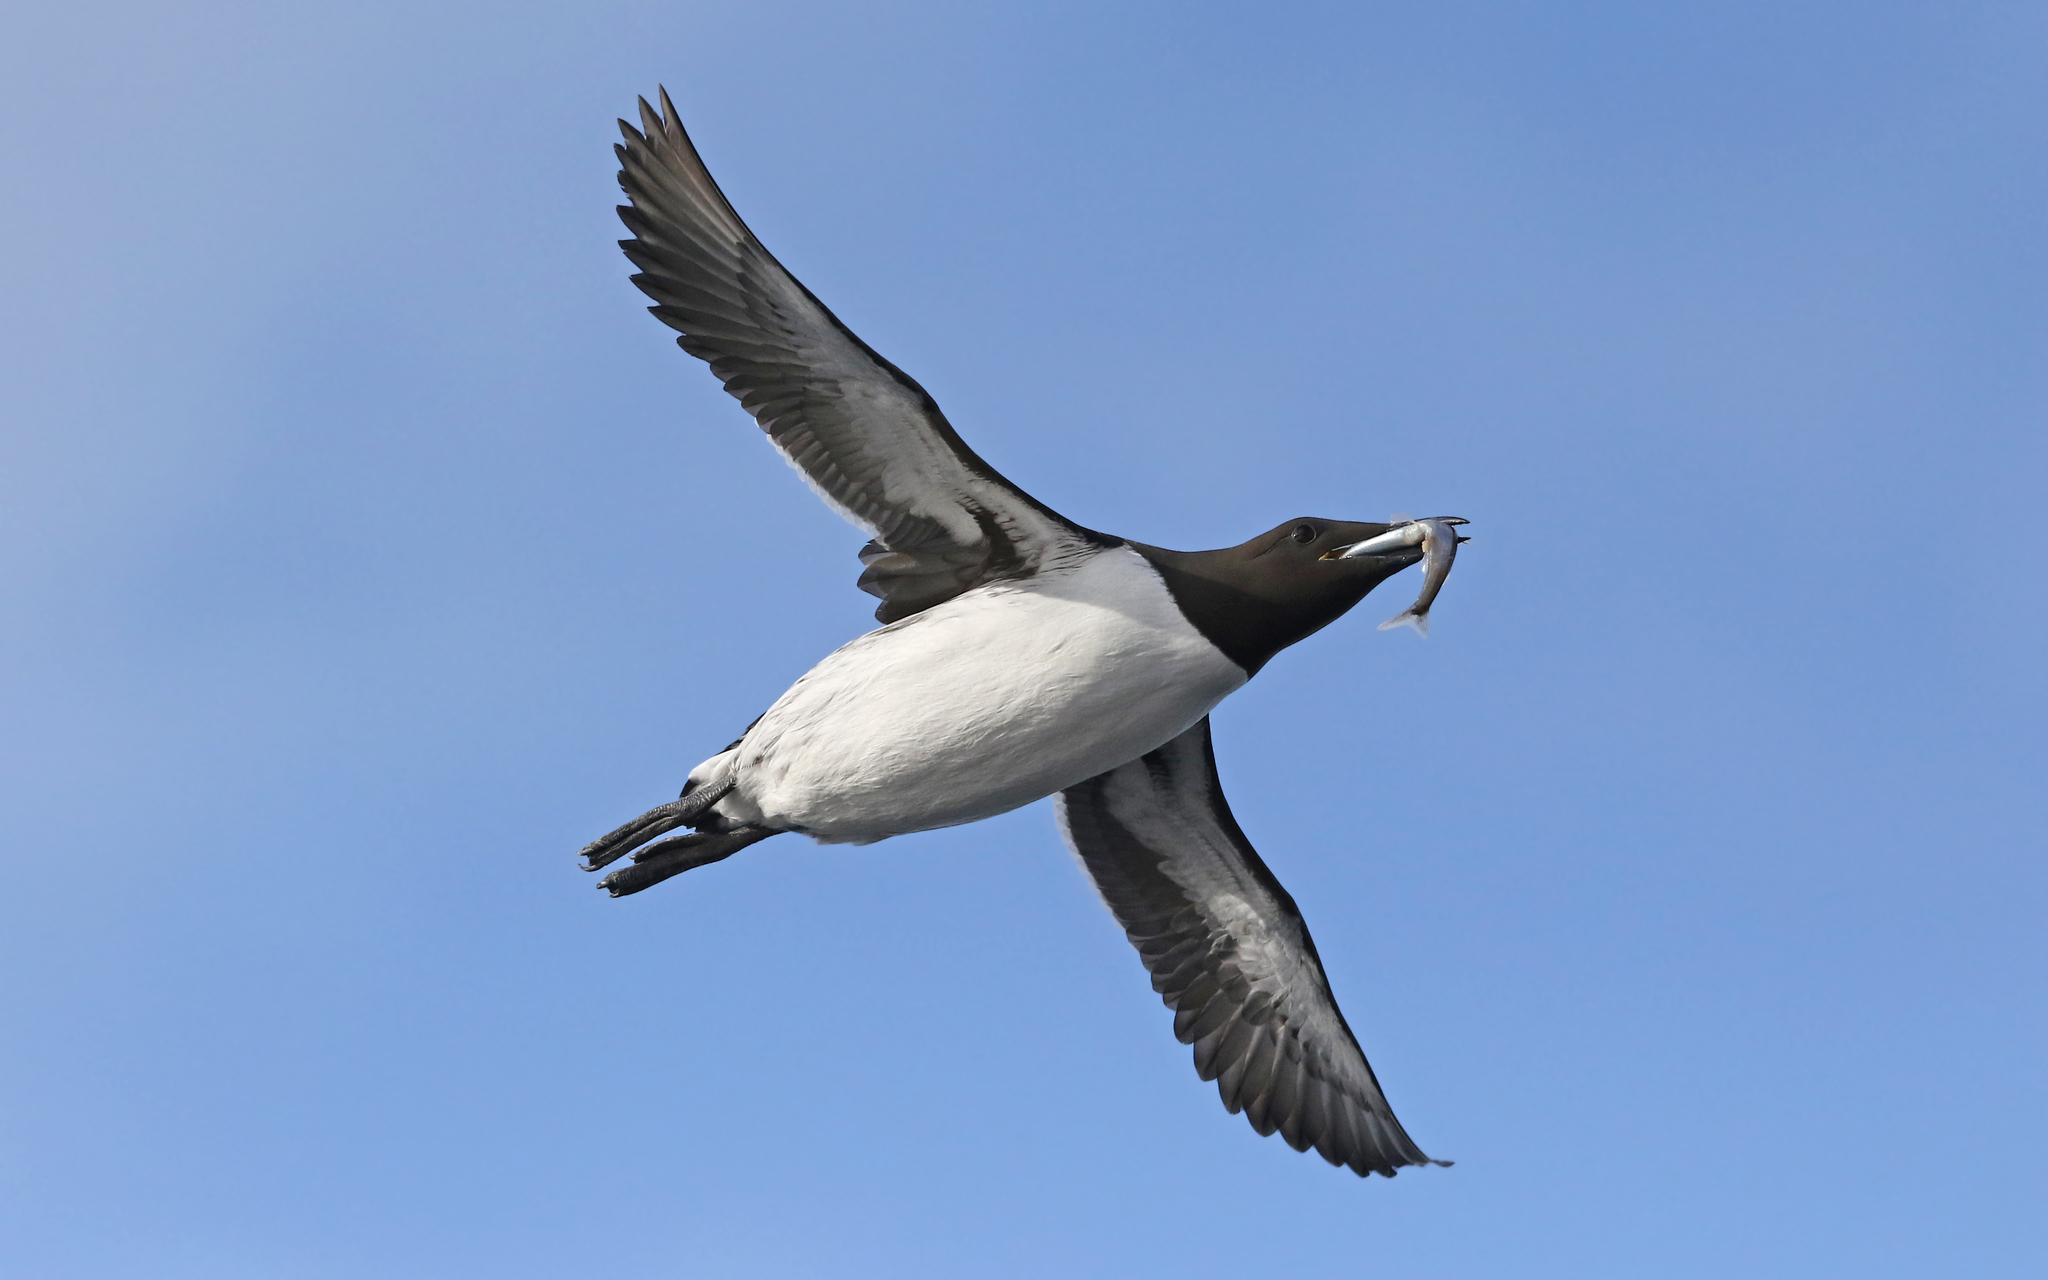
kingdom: Animalia
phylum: Chordata
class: Aves
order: Charadriiformes
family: Alcidae
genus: Uria
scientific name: Uria aalge
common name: Common murre
